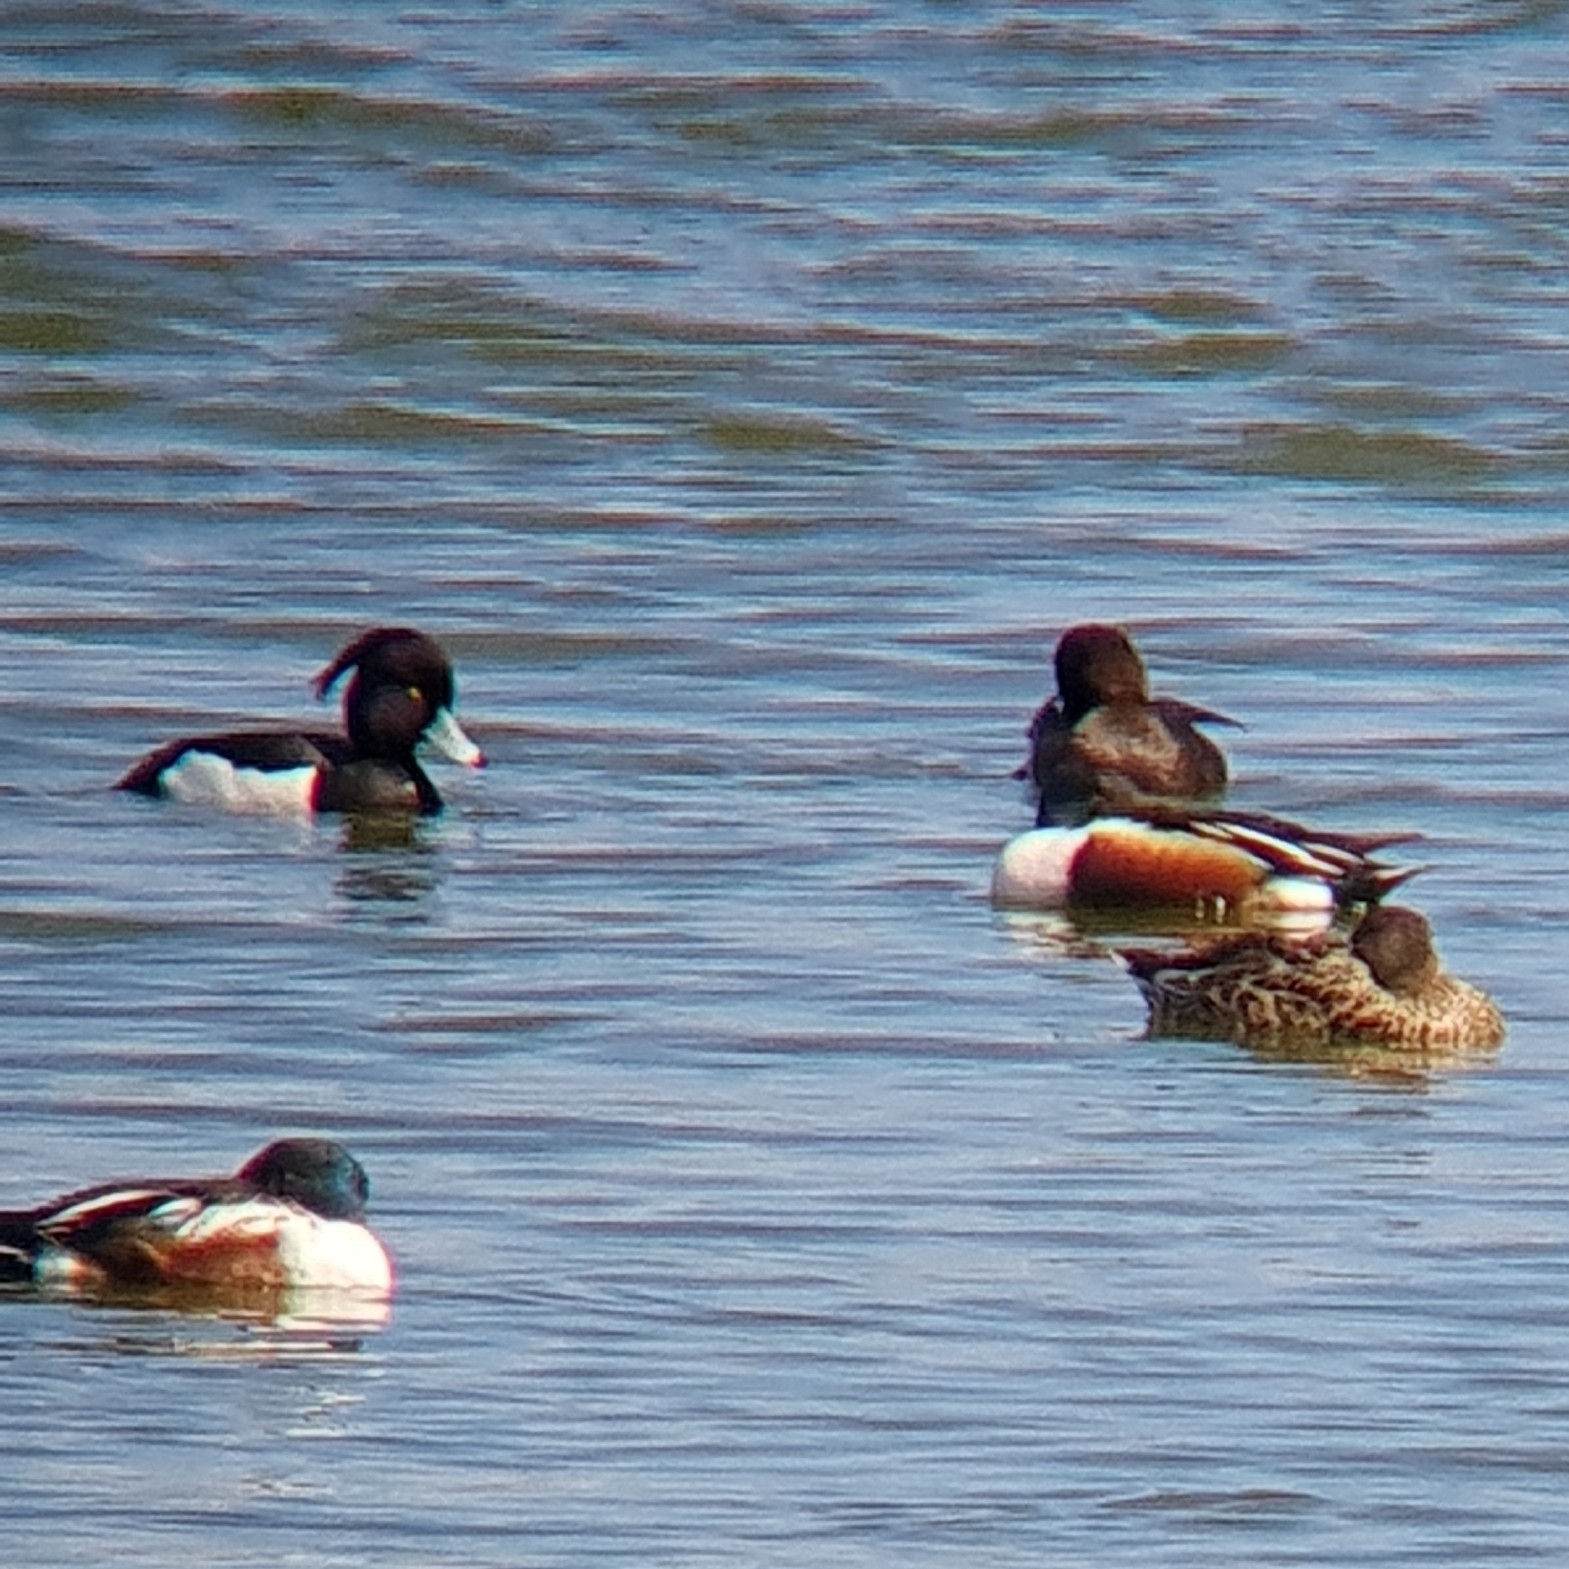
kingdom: Animalia
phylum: Chordata
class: Aves
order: Anseriformes
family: Anatidae
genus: Aythya
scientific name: Aythya fuligula
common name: Tufted duck
